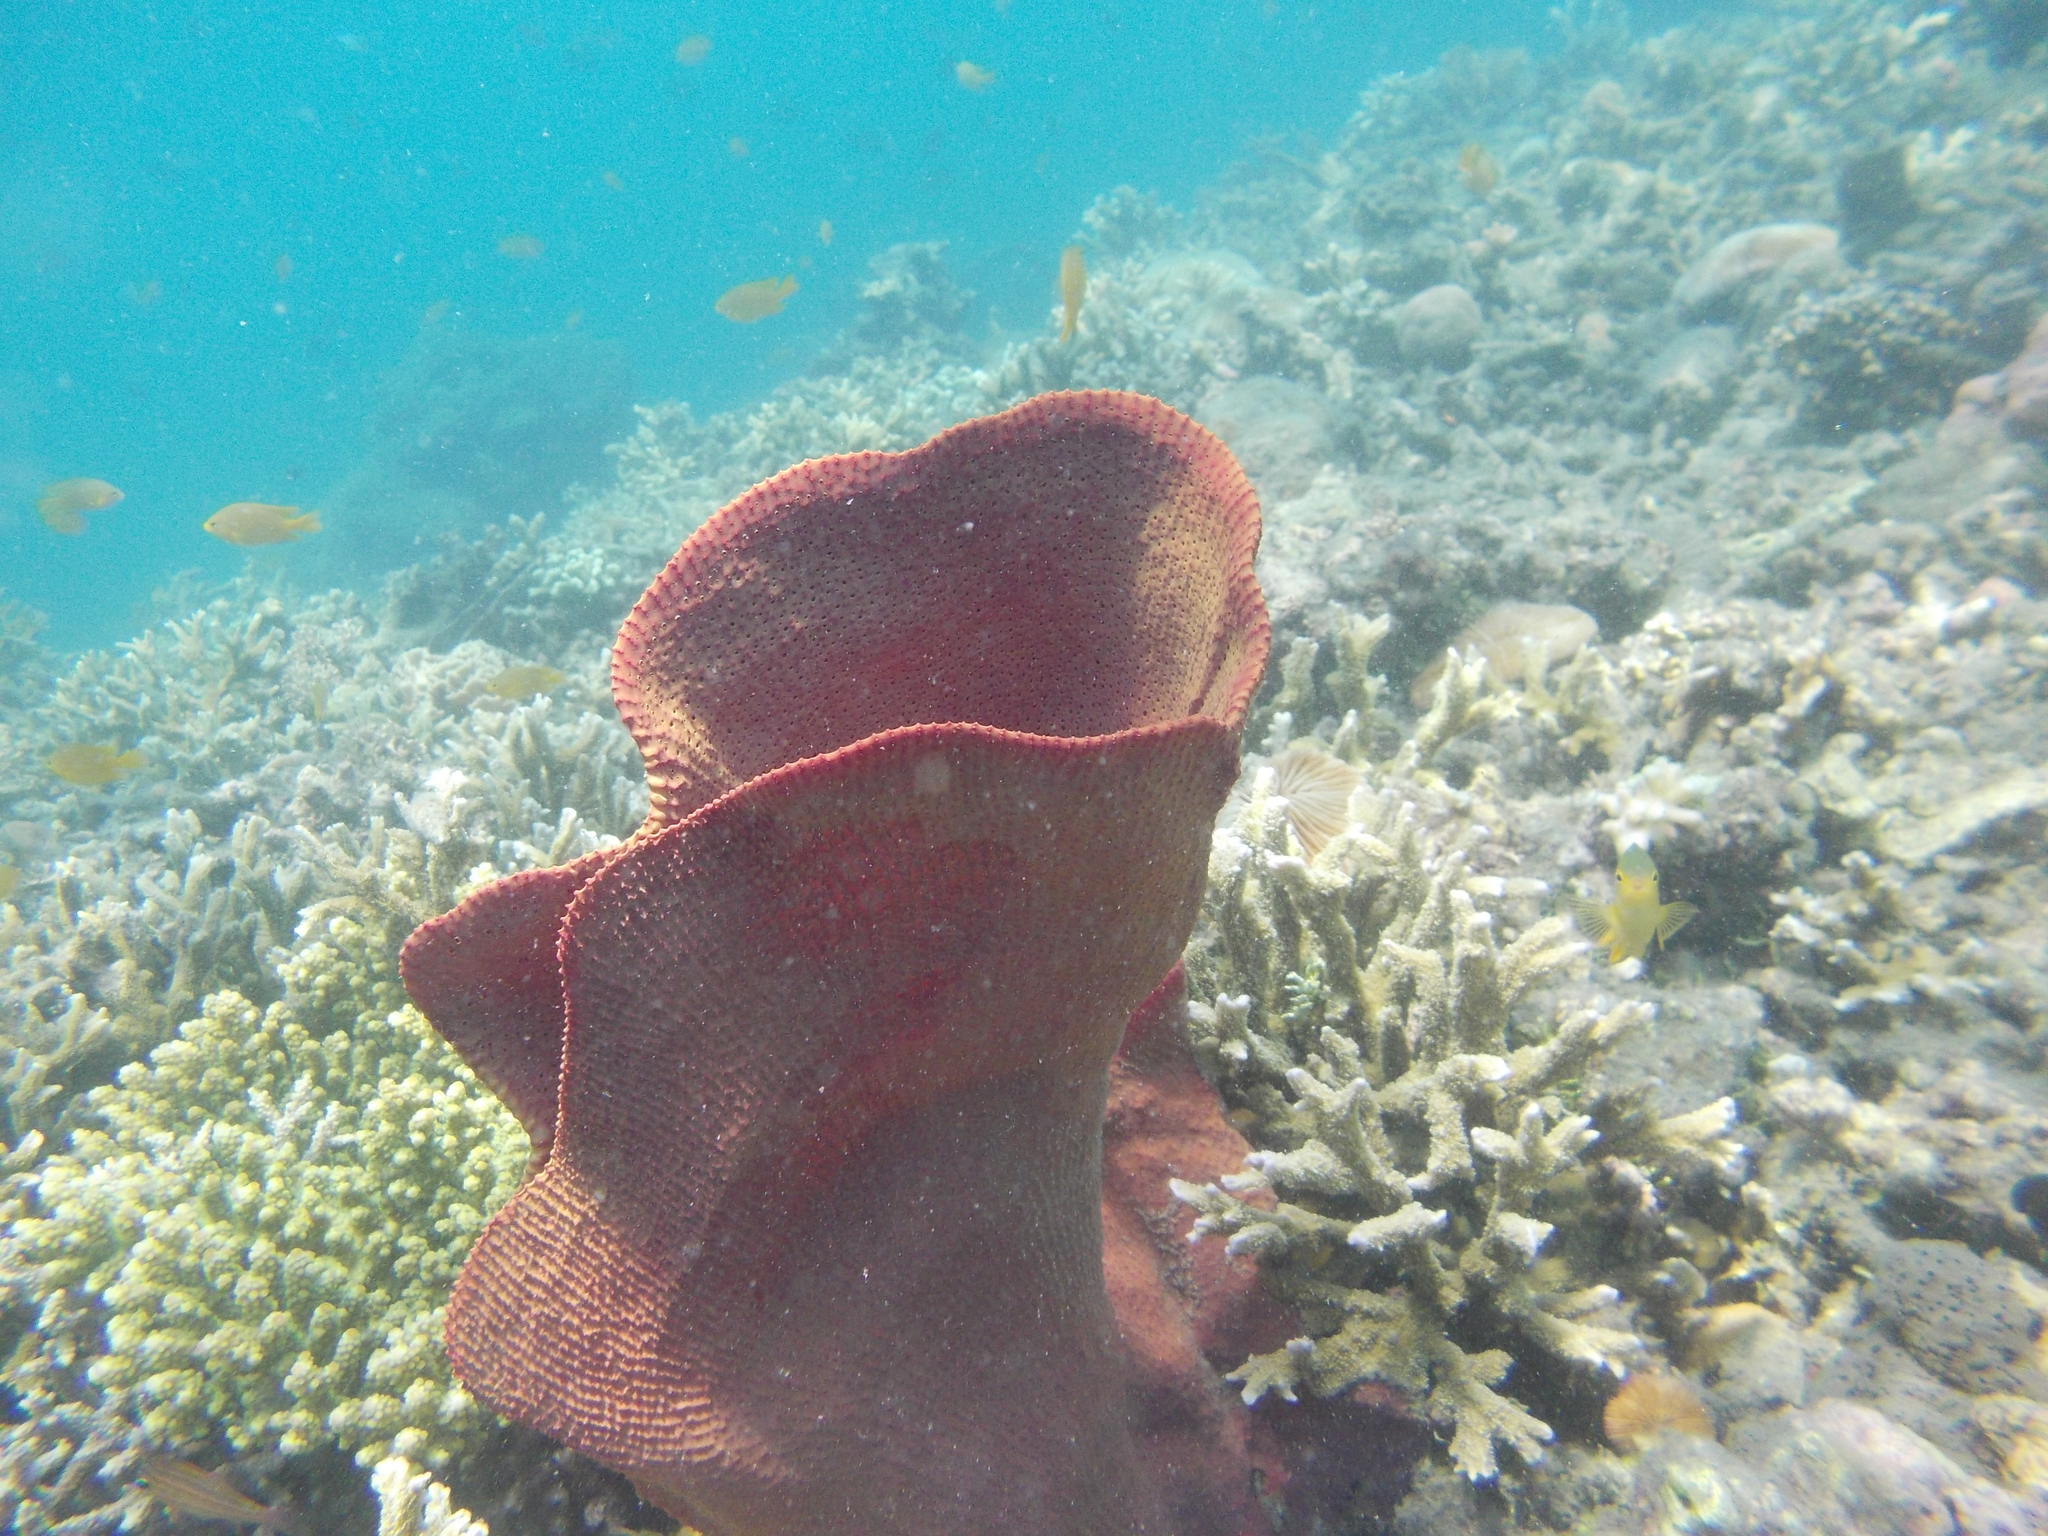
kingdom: Animalia
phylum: Porifera
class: Demospongiae
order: Verongiida
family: Ianthellidae
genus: Ianthella
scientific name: Ianthella basta
